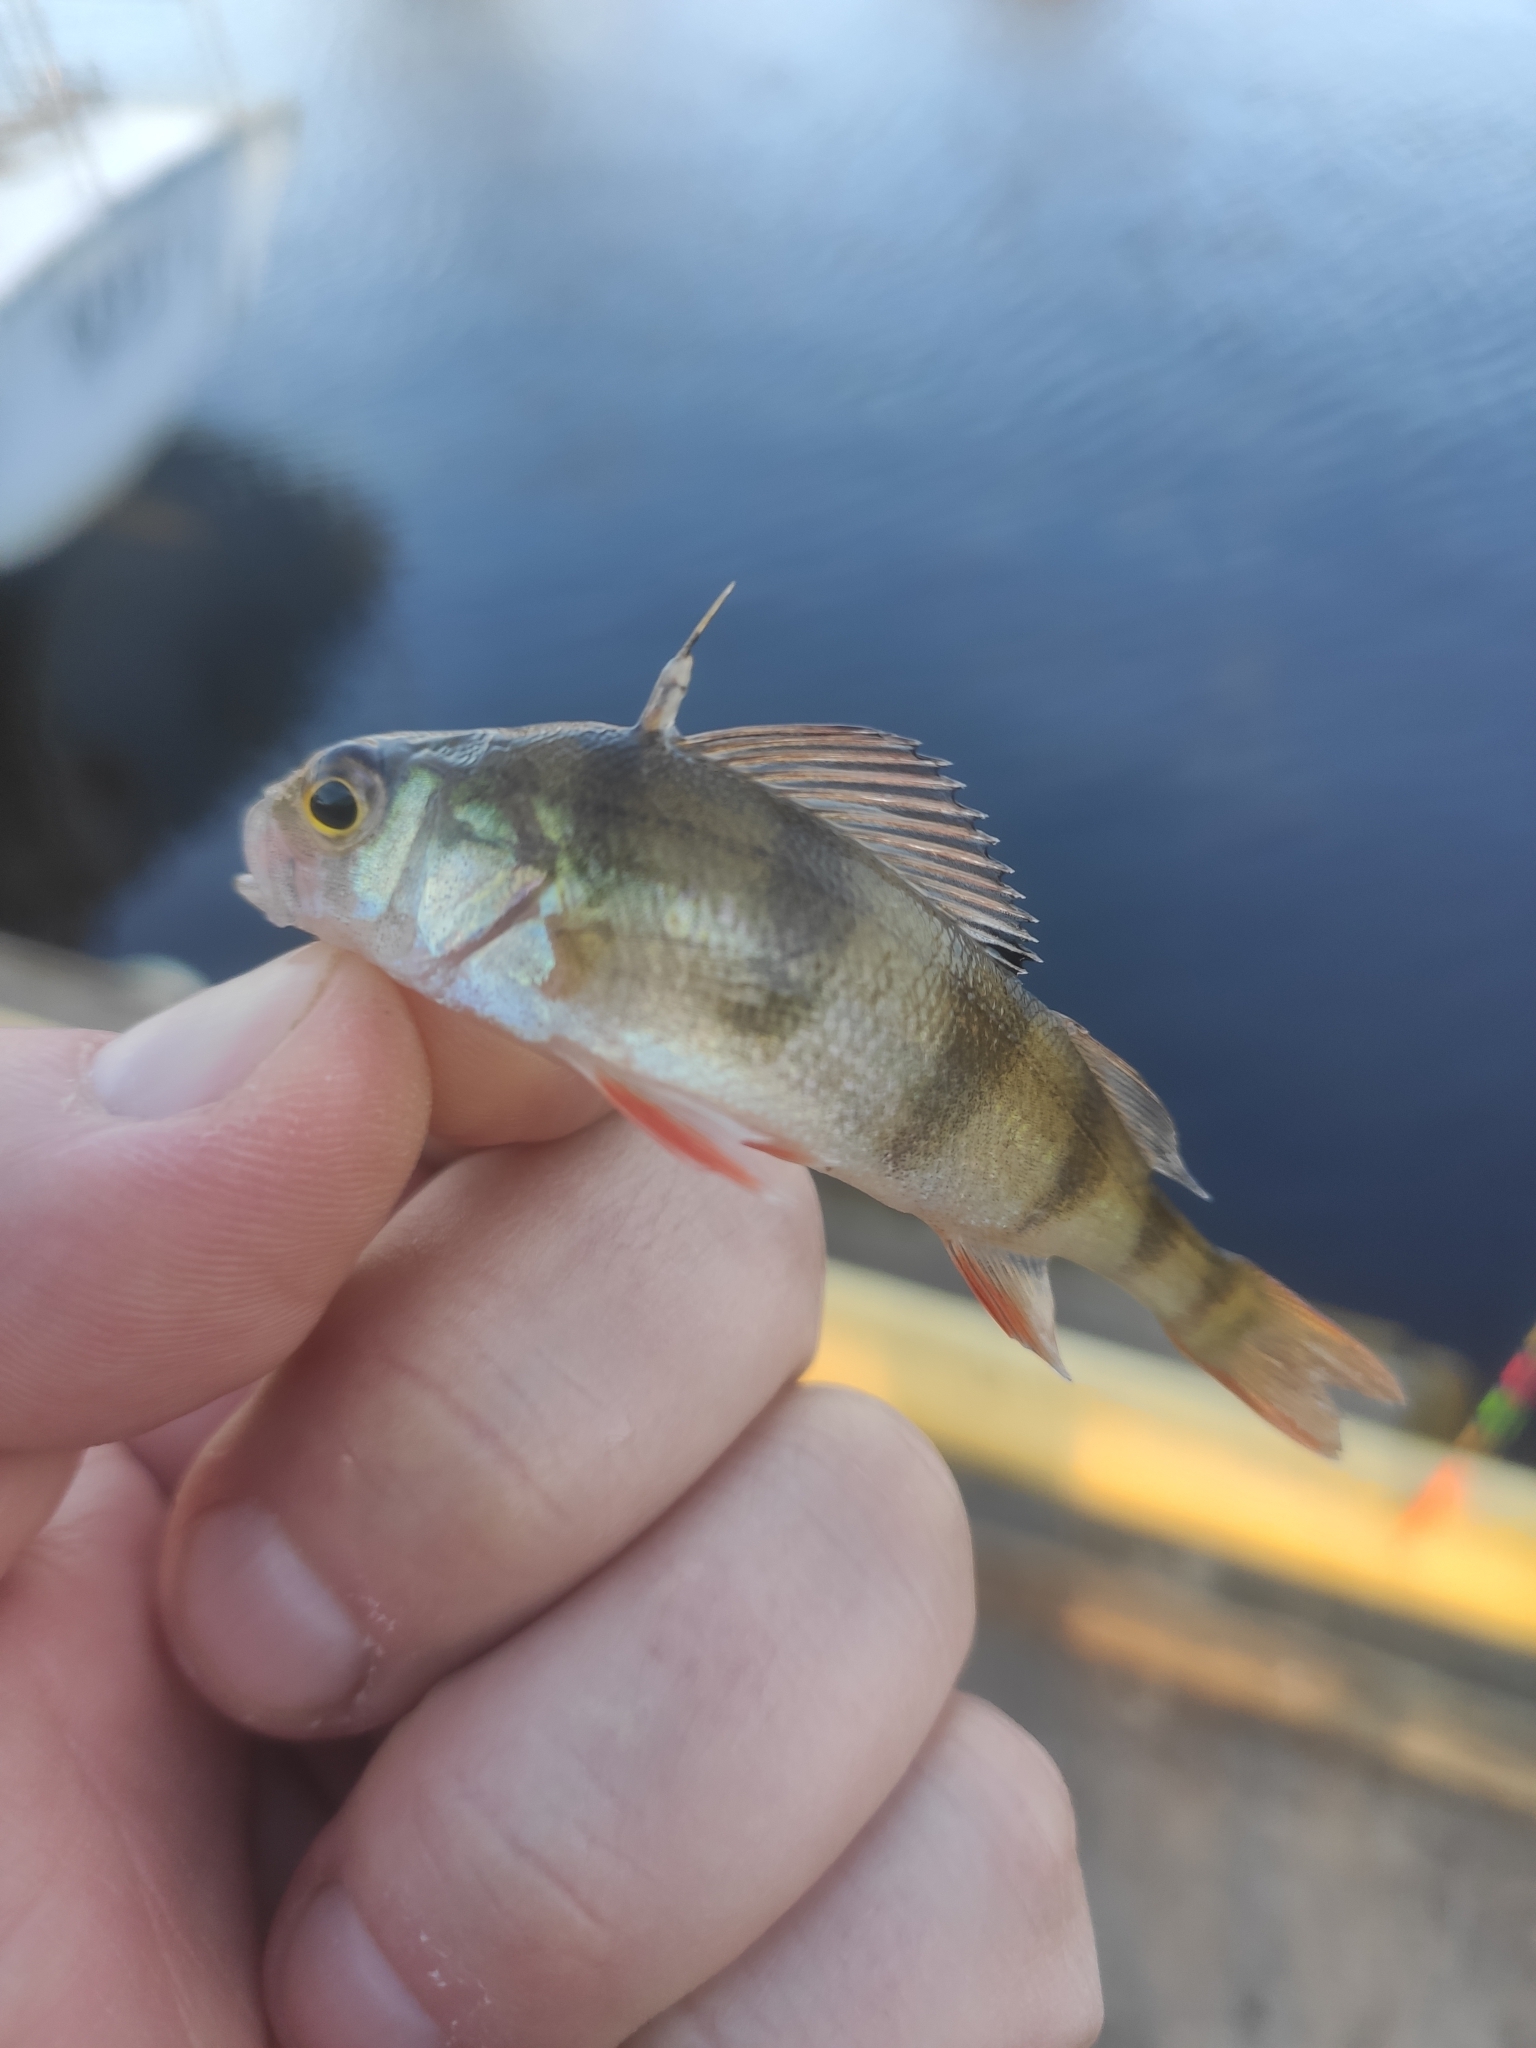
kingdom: Animalia
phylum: Chordata
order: Perciformes
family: Percidae
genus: Perca
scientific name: Perca fluviatilis
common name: Perch
